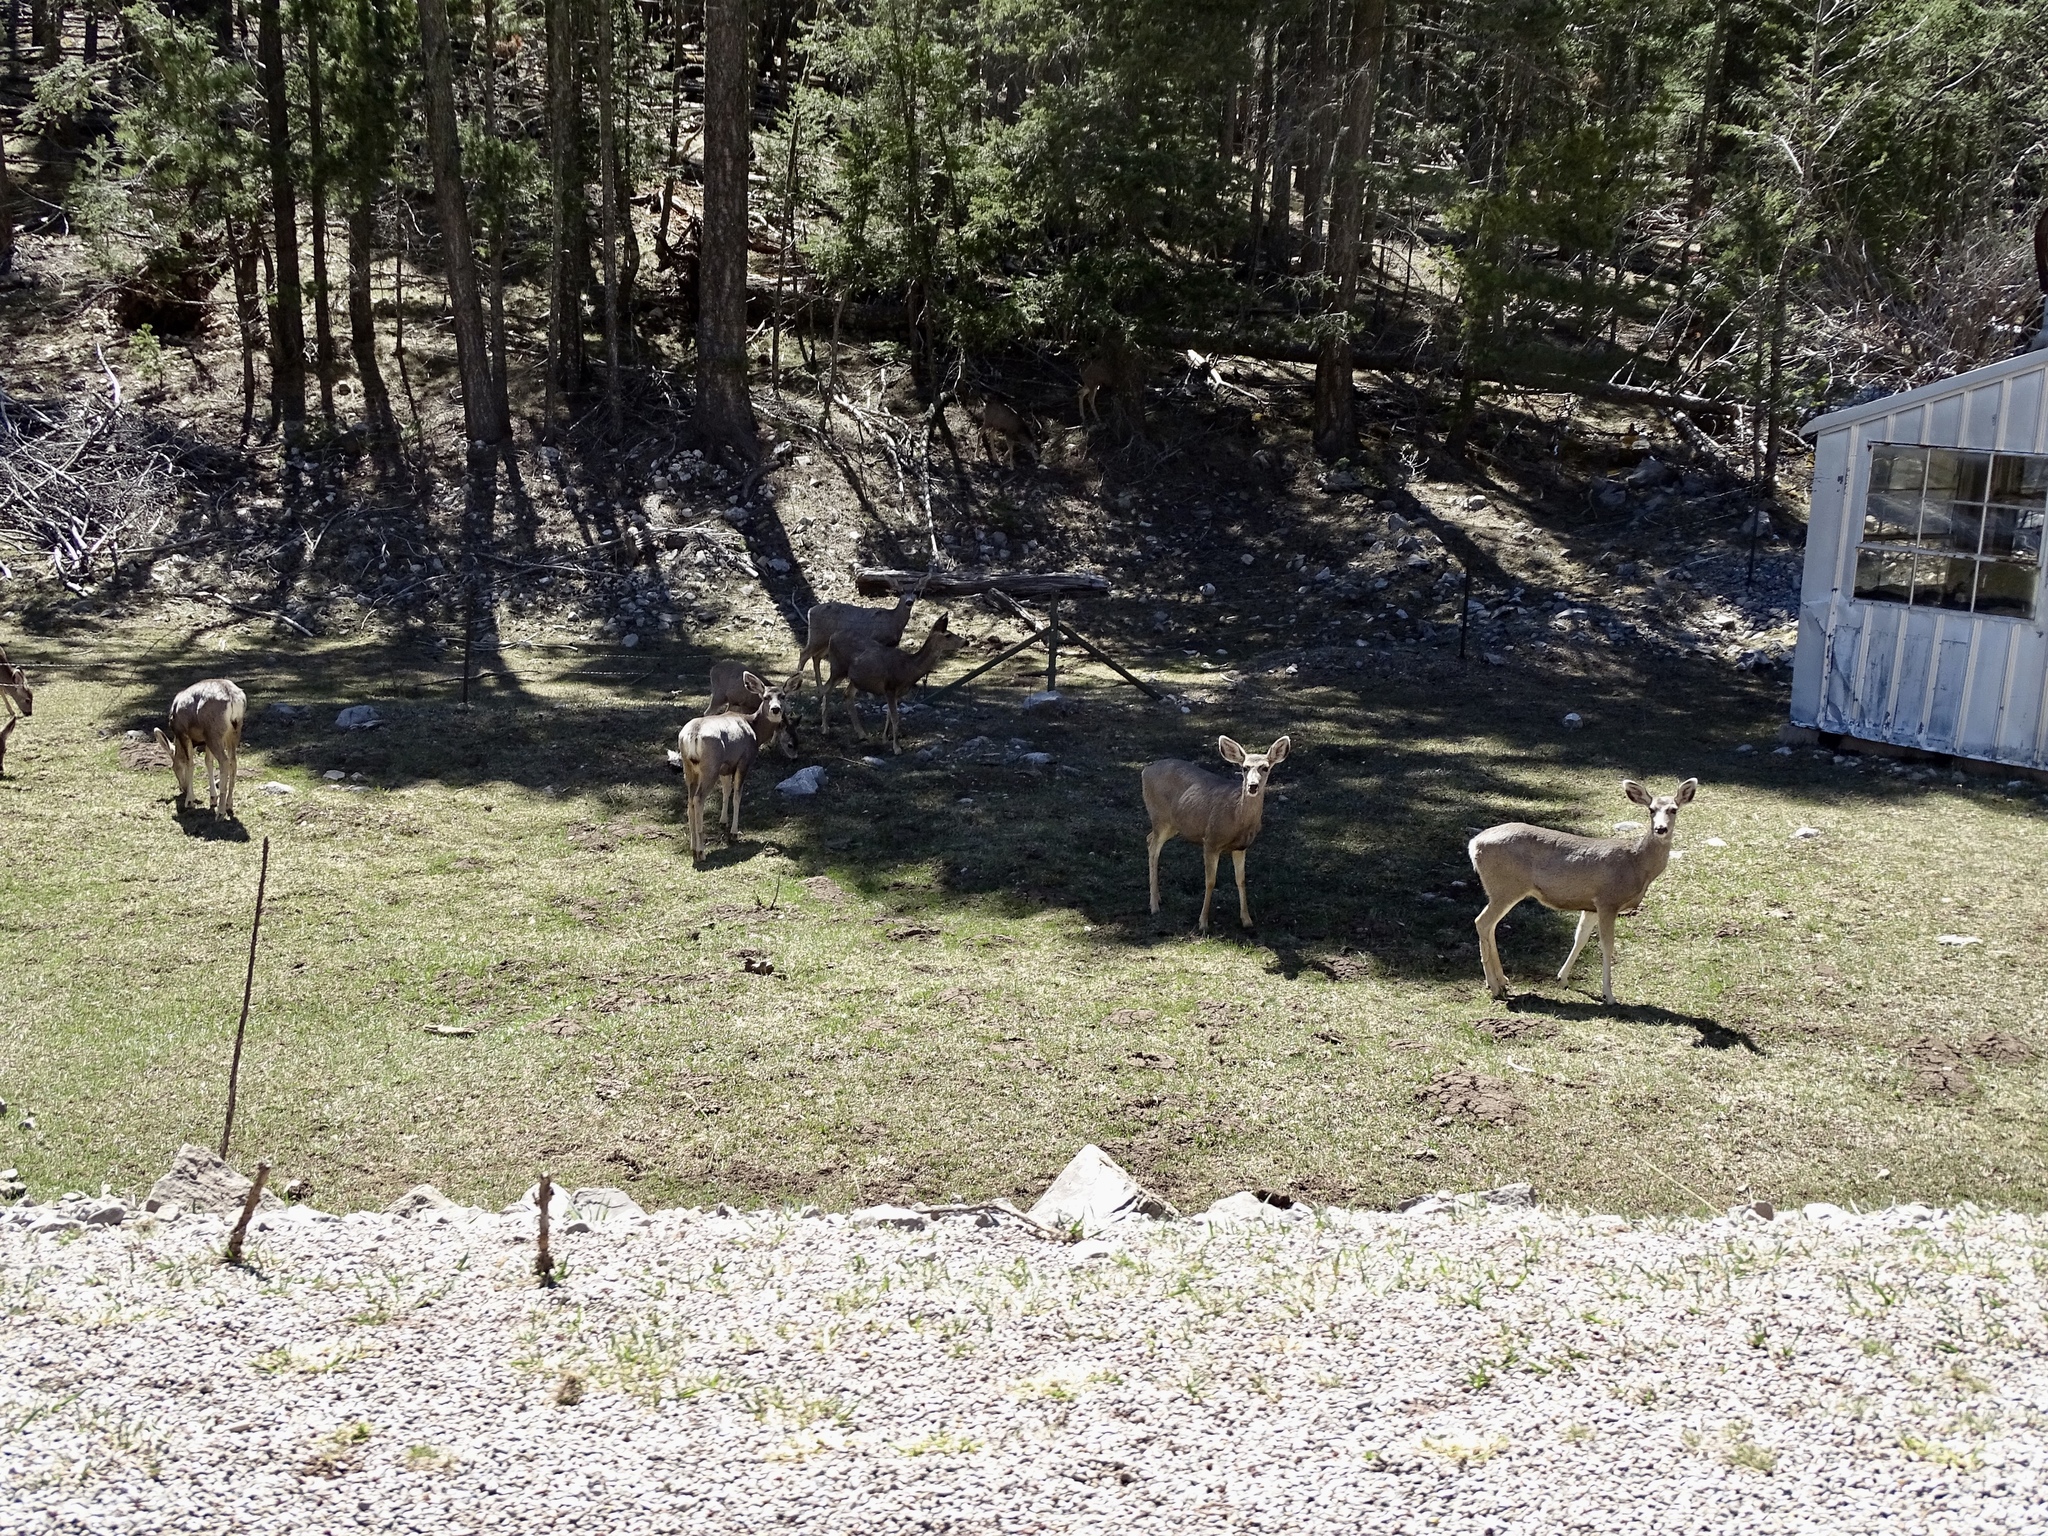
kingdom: Animalia
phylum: Chordata
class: Mammalia
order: Artiodactyla
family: Cervidae
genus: Odocoileus
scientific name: Odocoileus hemionus
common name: Mule deer
